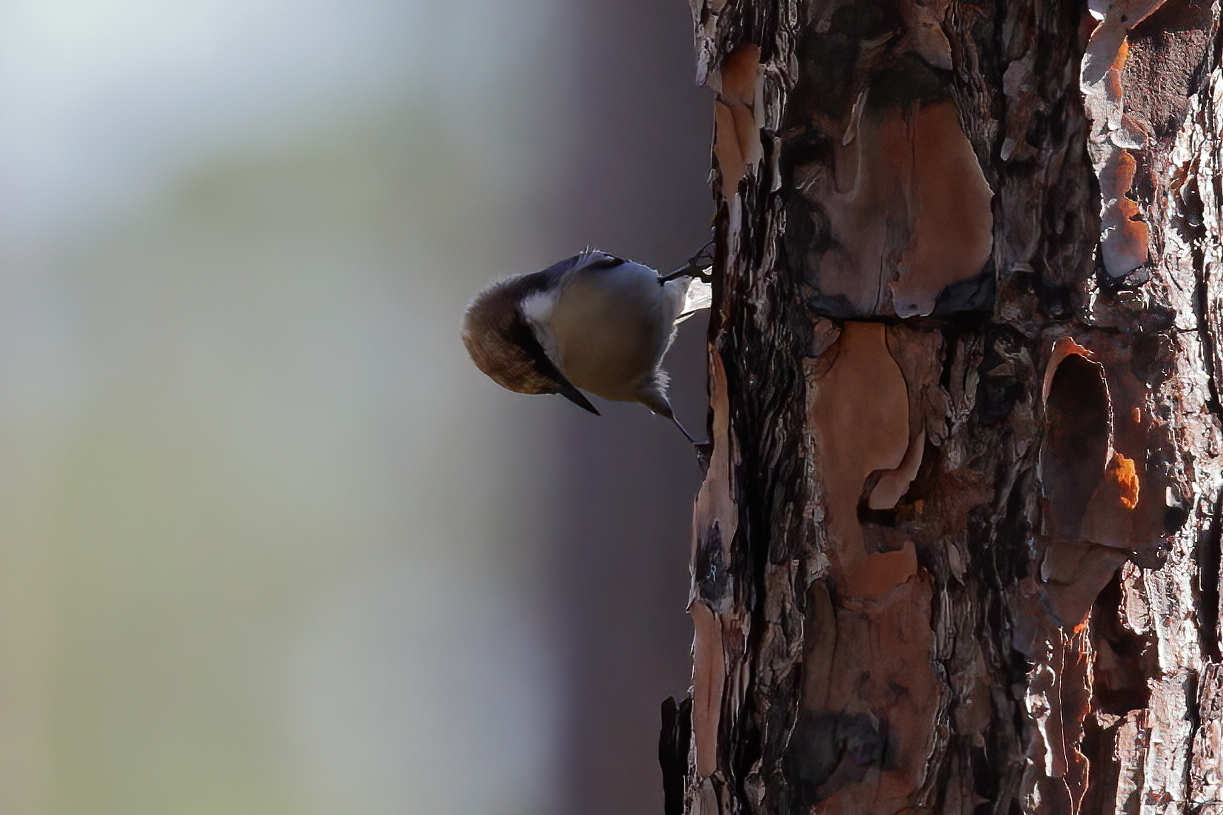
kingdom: Animalia
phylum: Chordata
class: Aves
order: Passeriformes
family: Sittidae
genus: Sitta
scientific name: Sitta pusilla
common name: Brown-headed nuthatch
